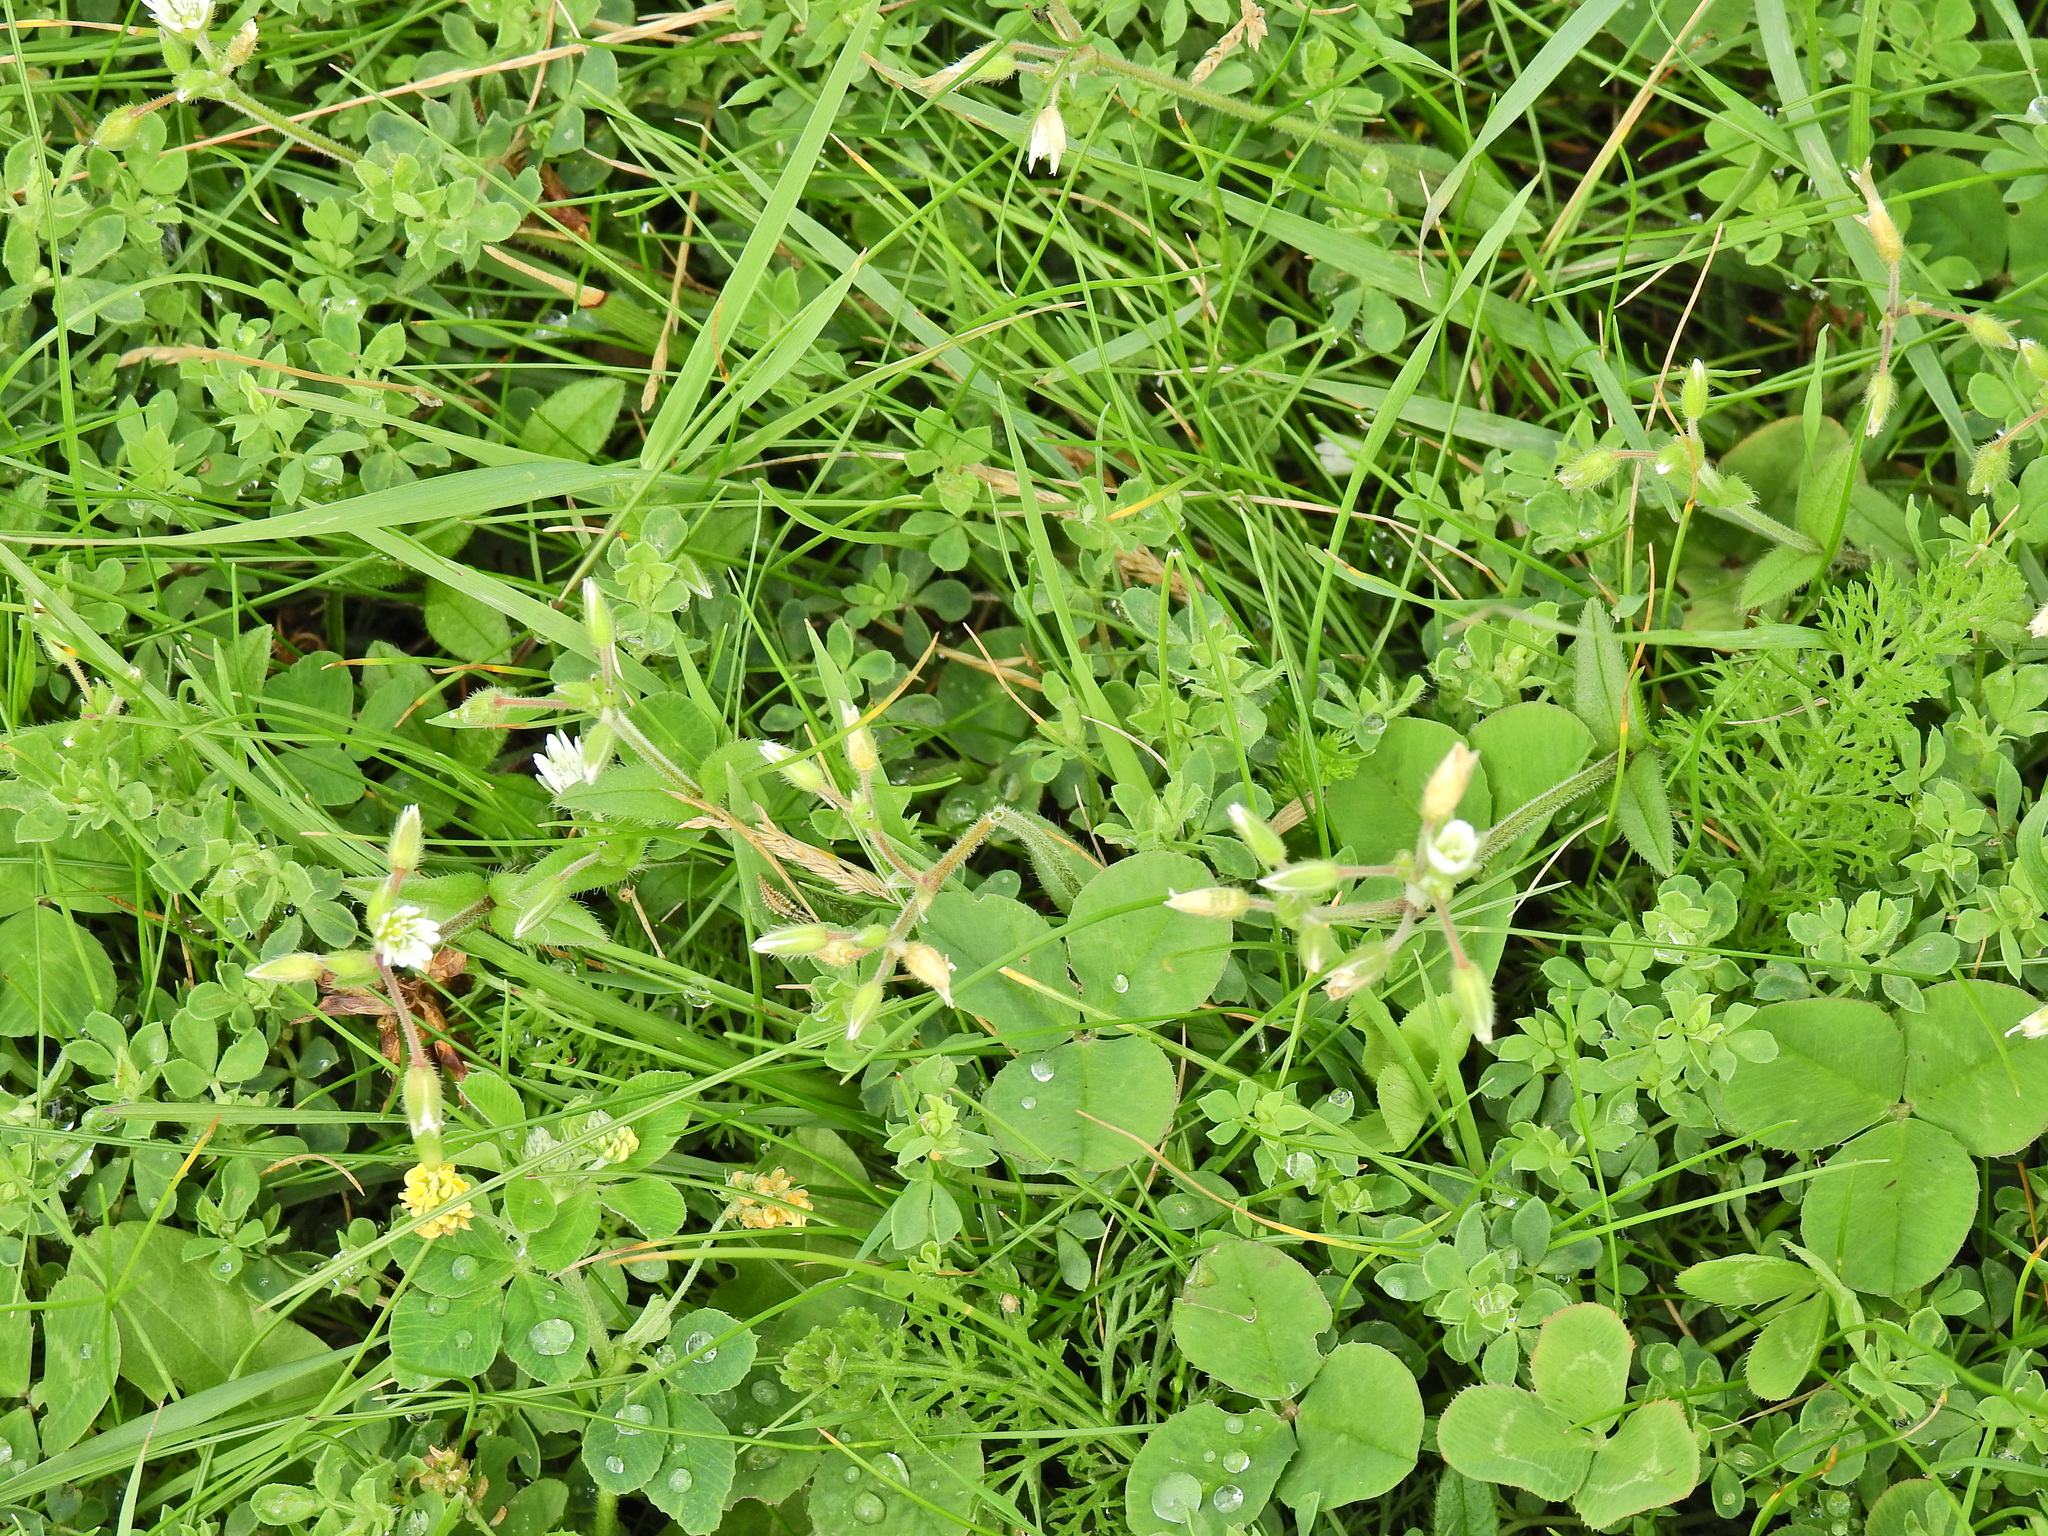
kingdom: Plantae
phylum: Tracheophyta
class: Magnoliopsida
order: Fabales
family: Fabaceae
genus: Medicago
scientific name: Medicago lupulina
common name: Black medick
